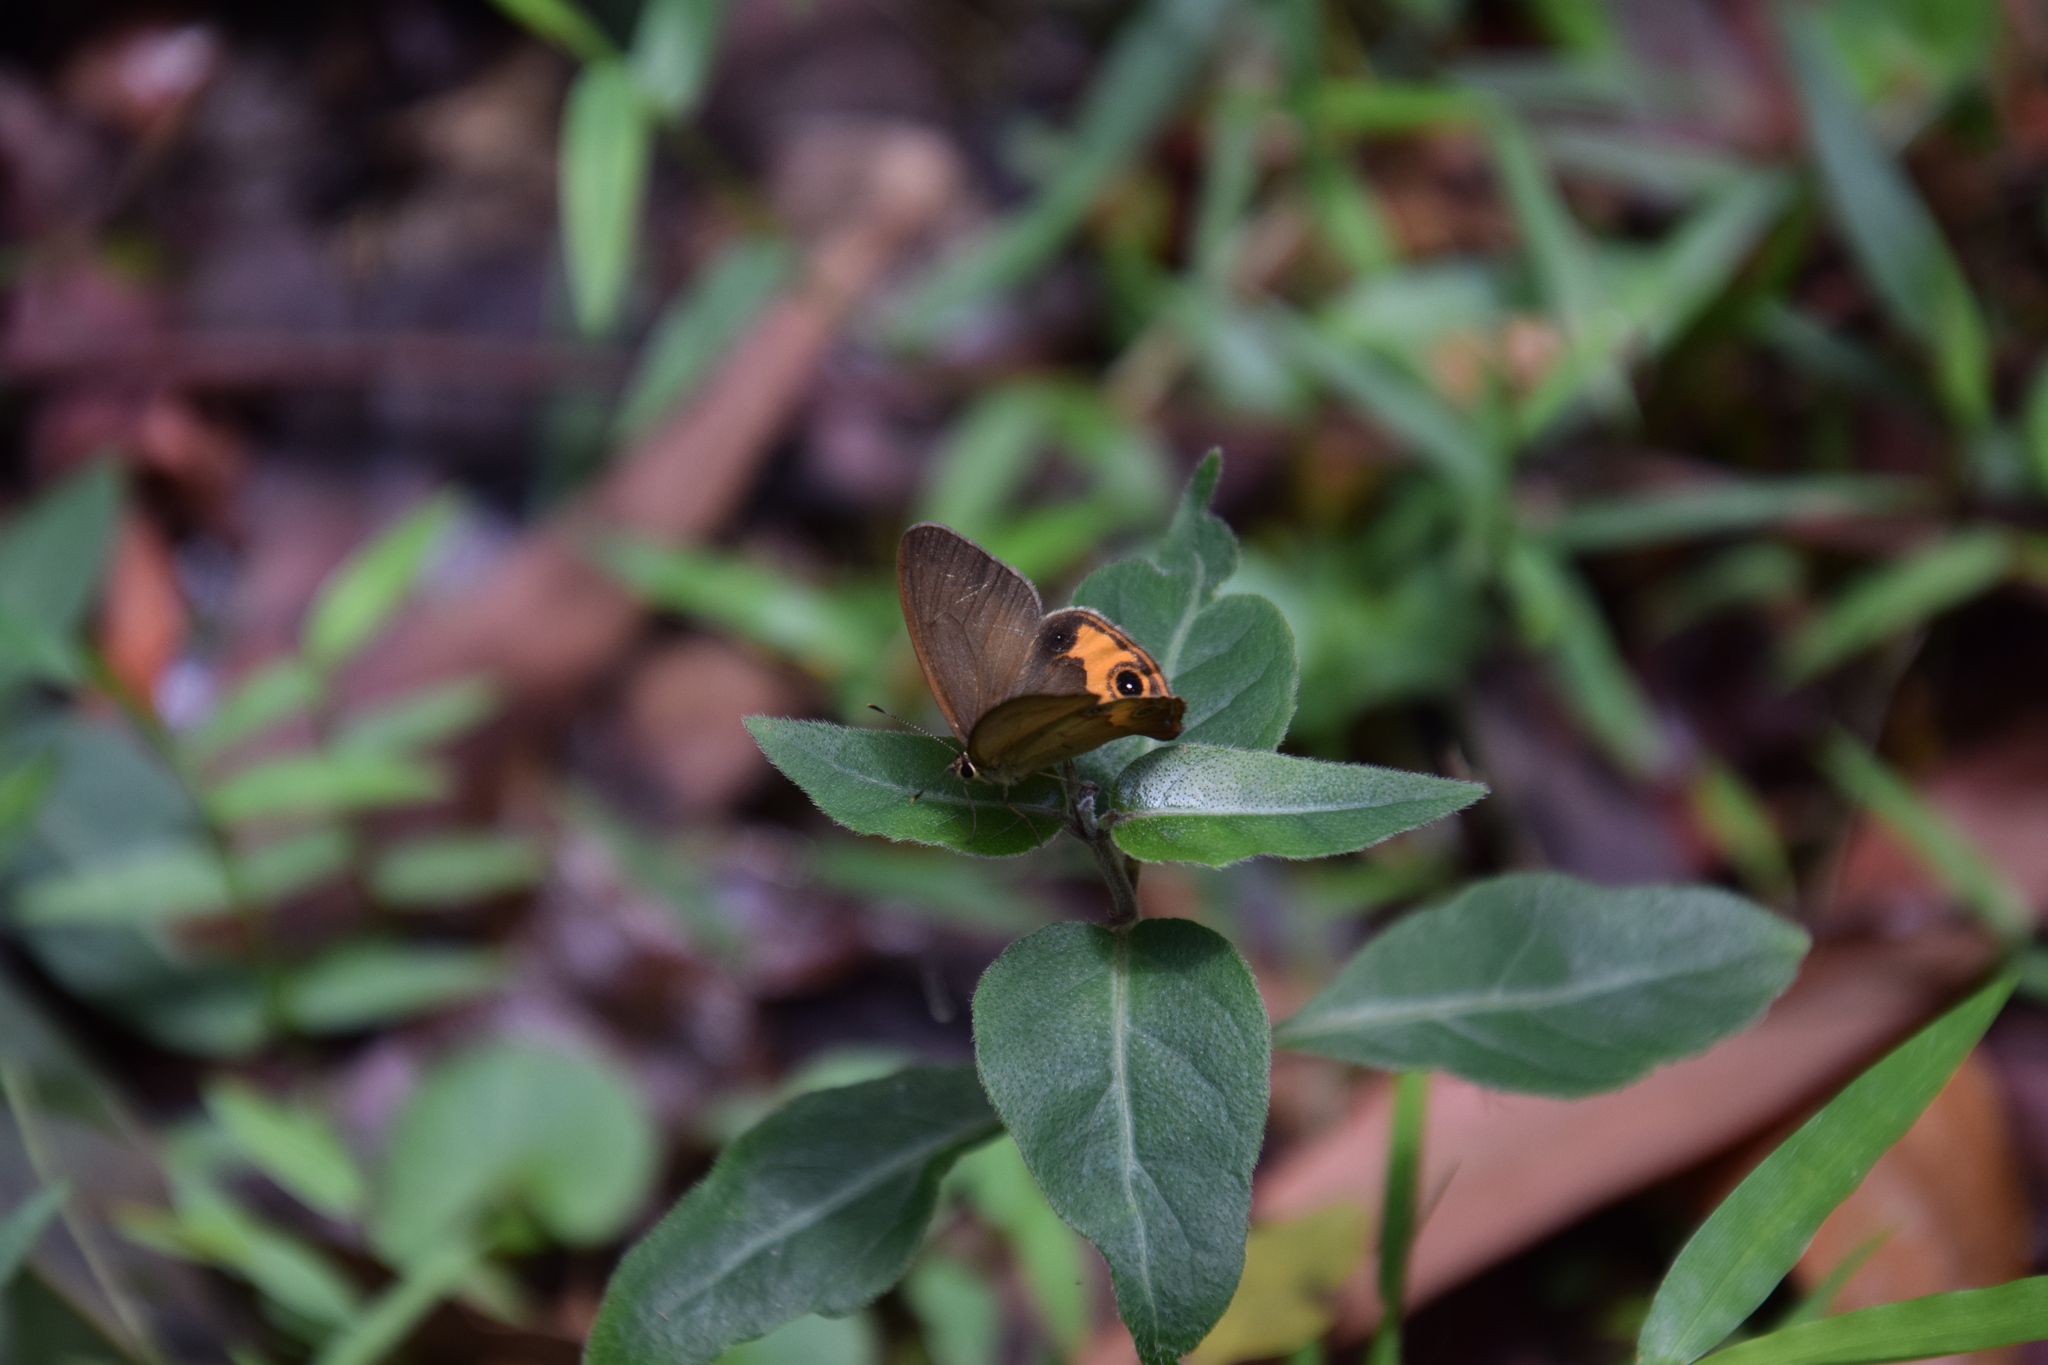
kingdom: Animalia
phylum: Arthropoda
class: Insecta
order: Lepidoptera
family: Nymphalidae
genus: Hypocysta
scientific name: Hypocysta metirius
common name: Brown ringlet
